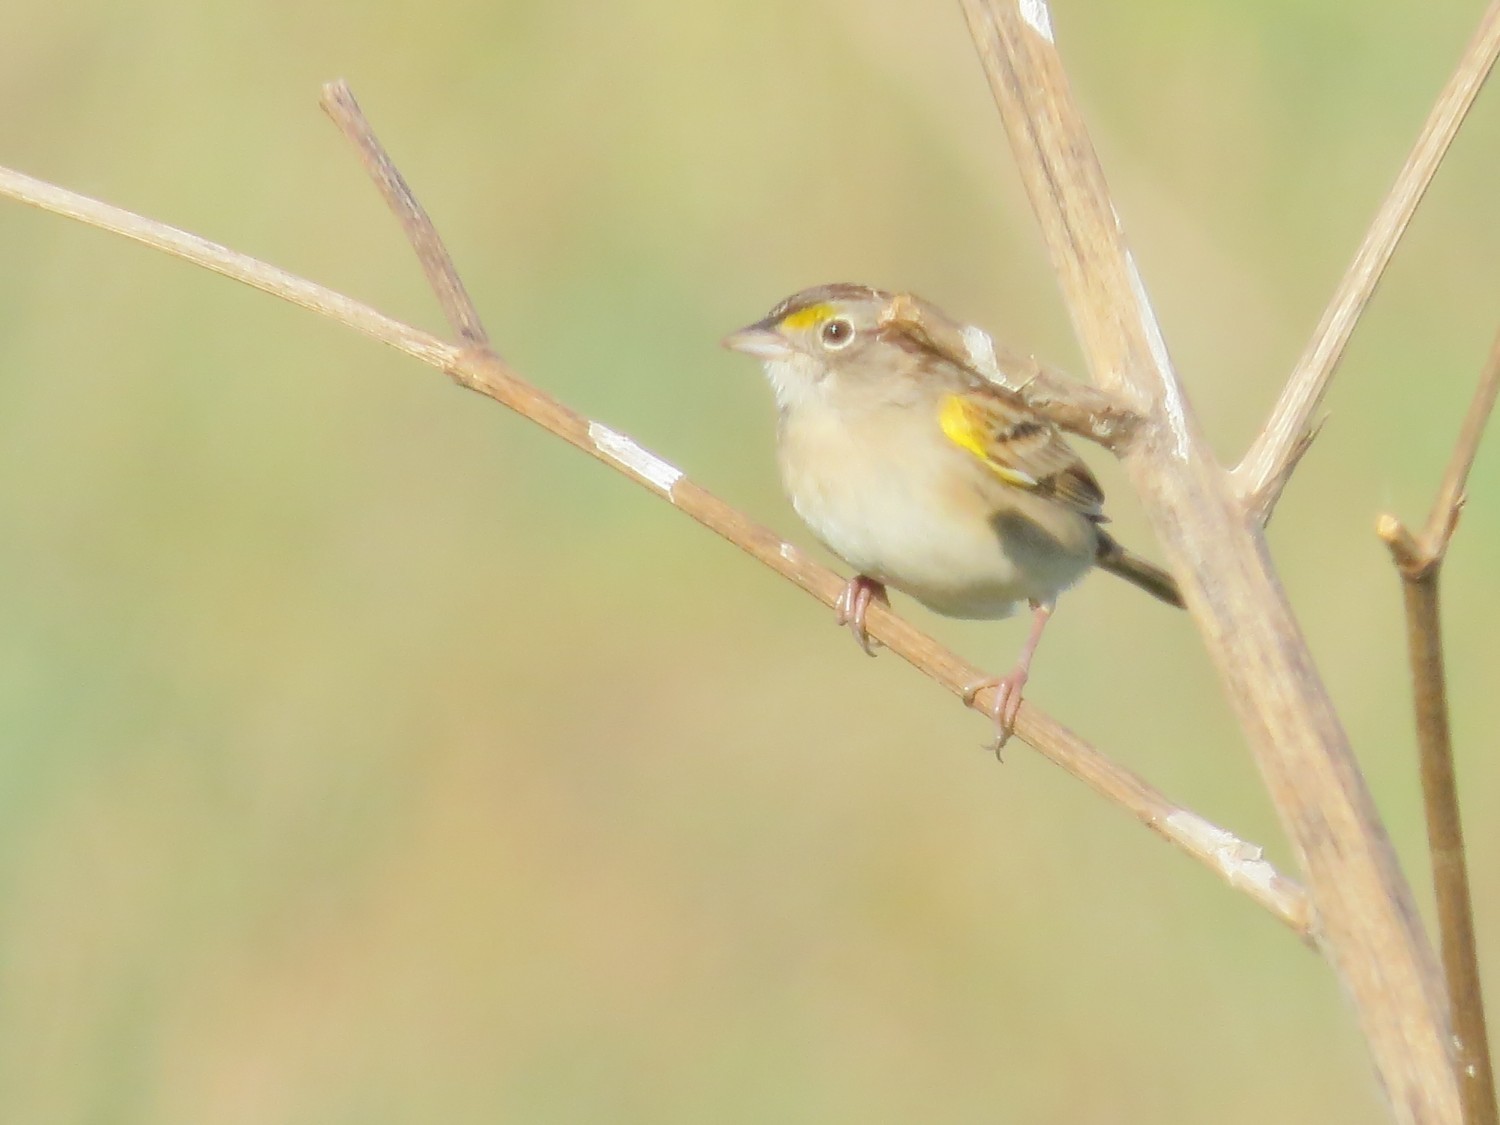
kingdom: Animalia
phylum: Chordata
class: Aves
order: Passeriformes
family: Passerellidae
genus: Ammodramus
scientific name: Ammodramus humeralis
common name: Grassland sparrow
